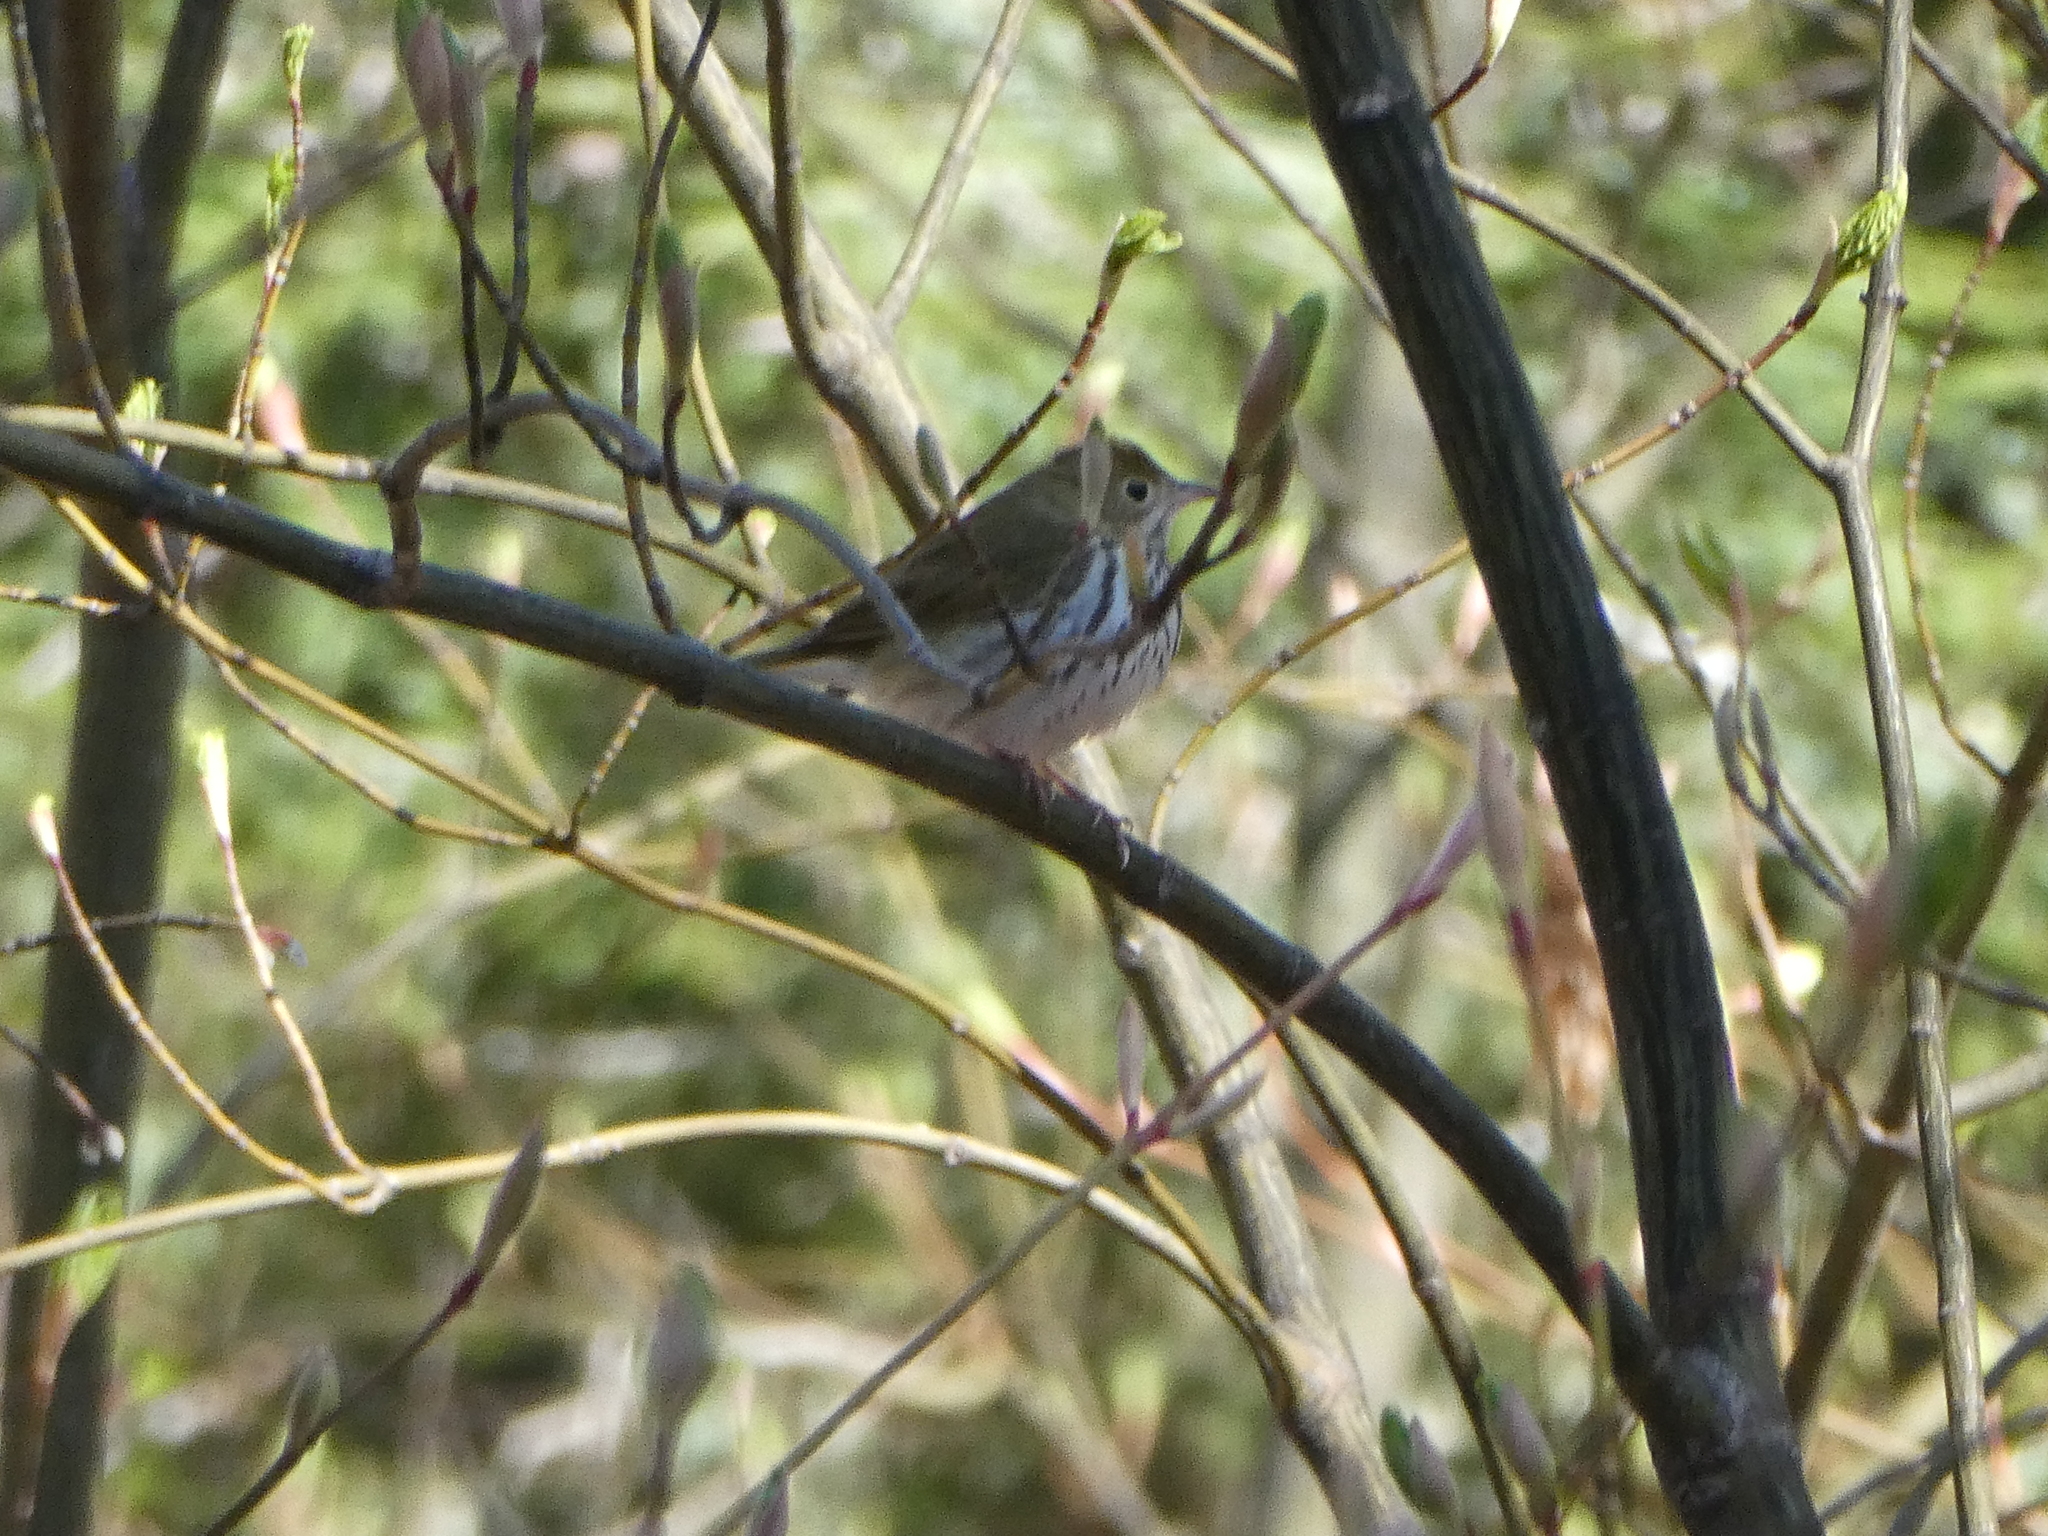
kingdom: Animalia
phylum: Chordata
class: Aves
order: Passeriformes
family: Parulidae
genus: Seiurus
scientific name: Seiurus aurocapilla
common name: Ovenbird
